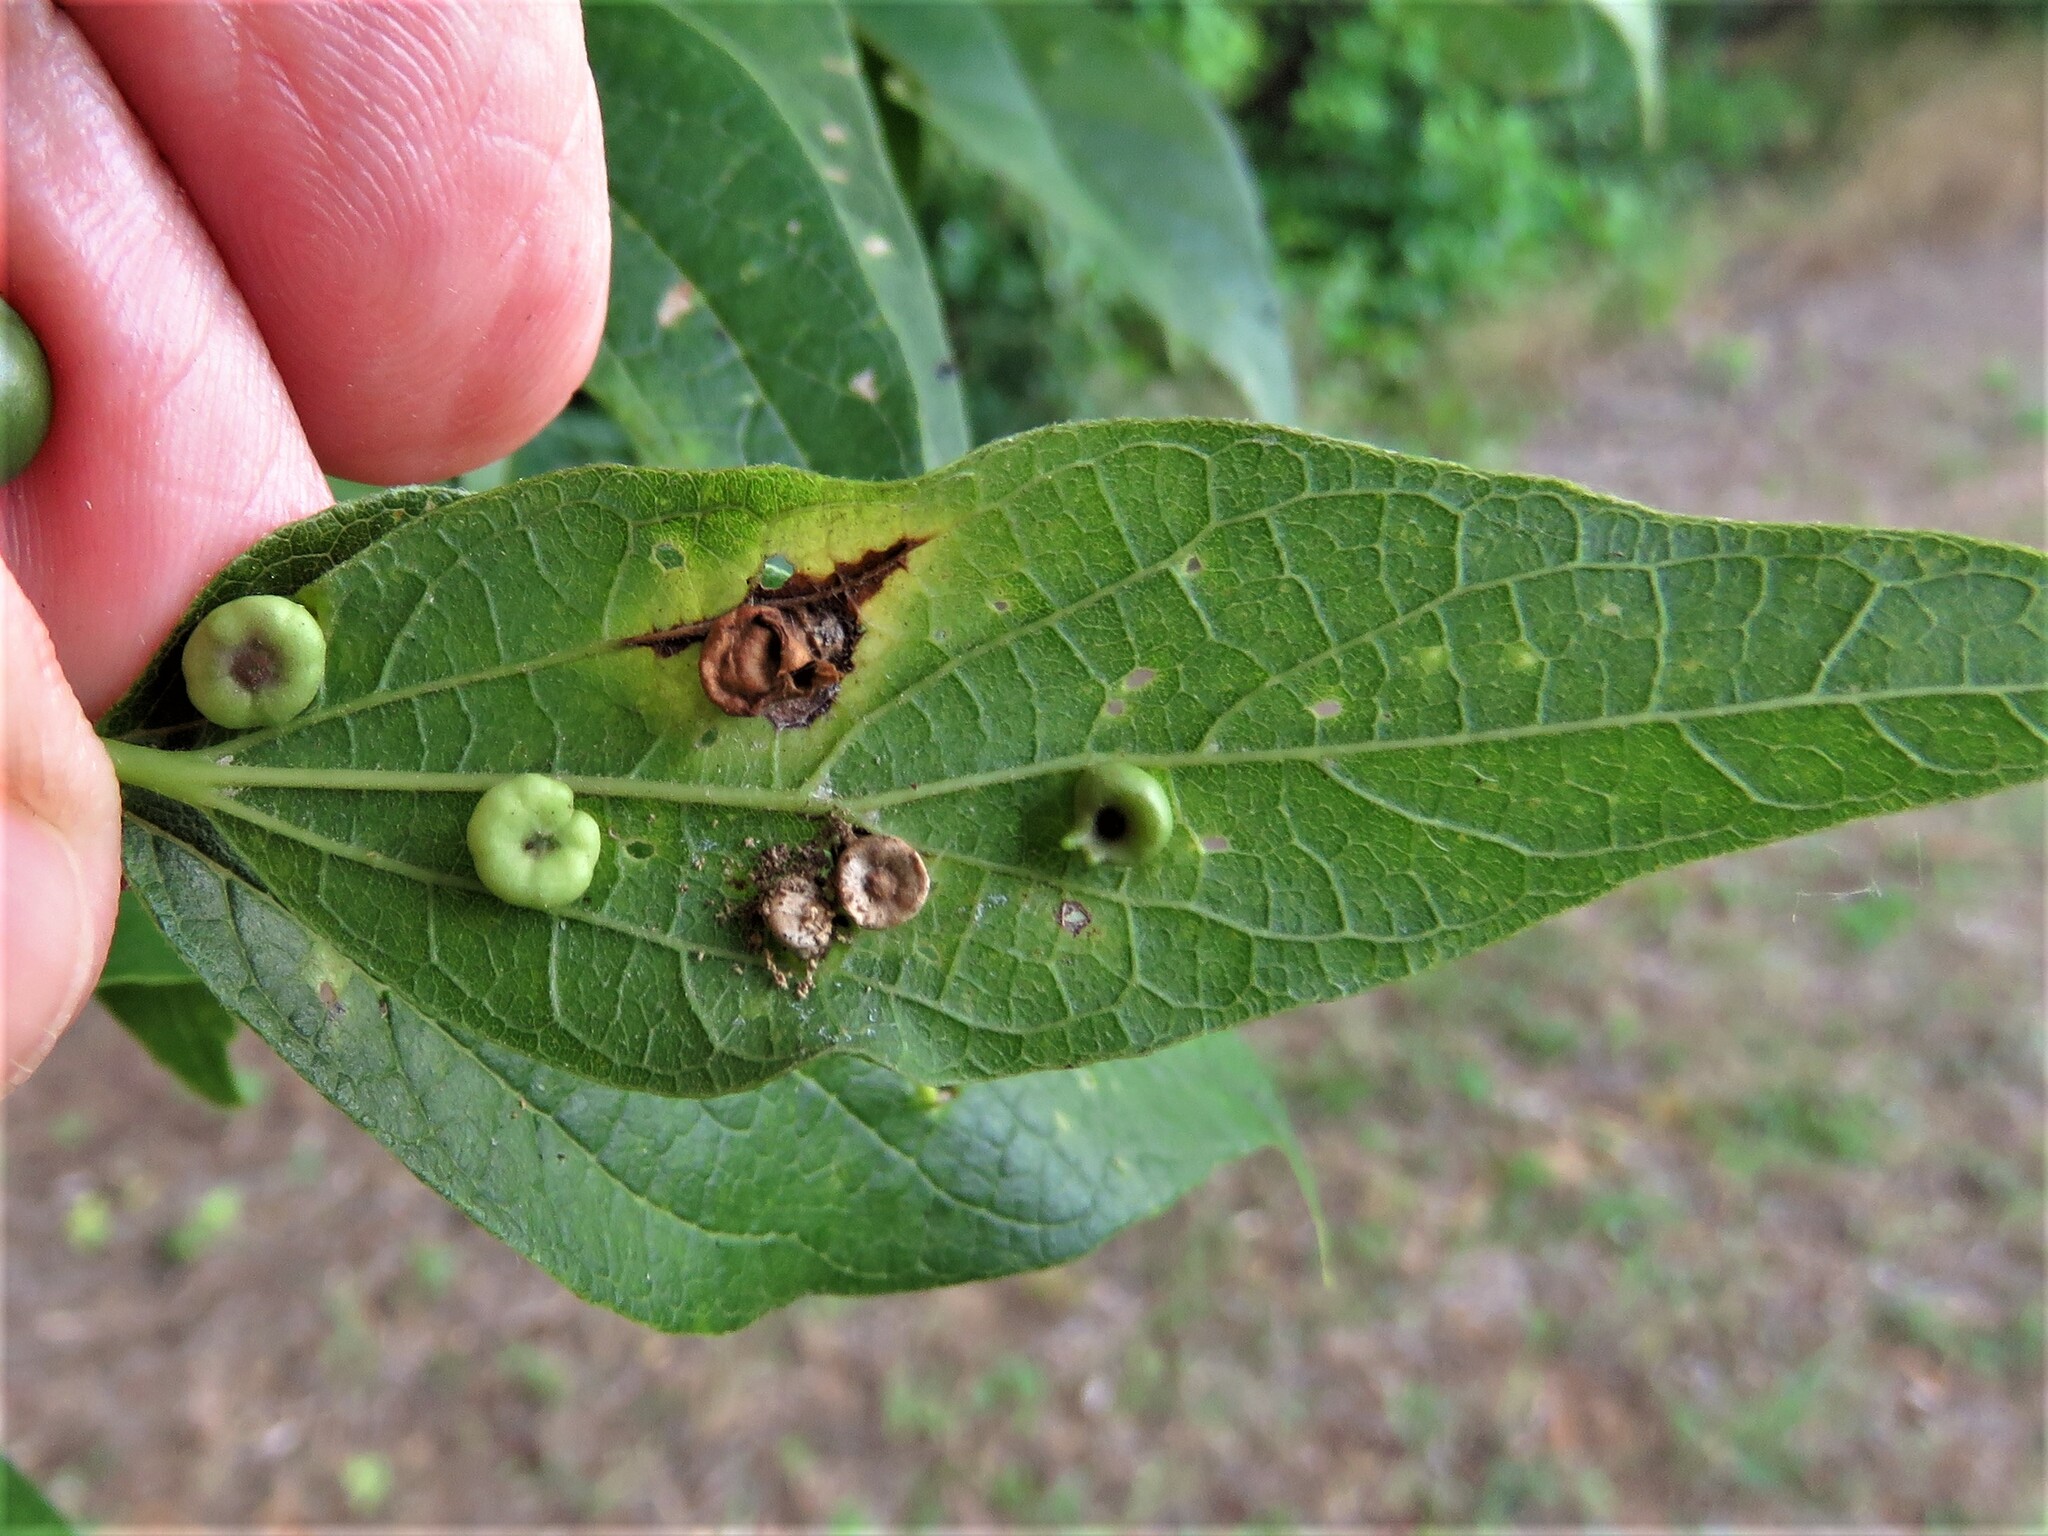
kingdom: Animalia
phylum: Arthropoda
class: Insecta
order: Hemiptera
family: Aphalaridae
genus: Pachypsylla
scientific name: Pachypsylla celtidismamma
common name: Hackberry nipplegall psyllid
